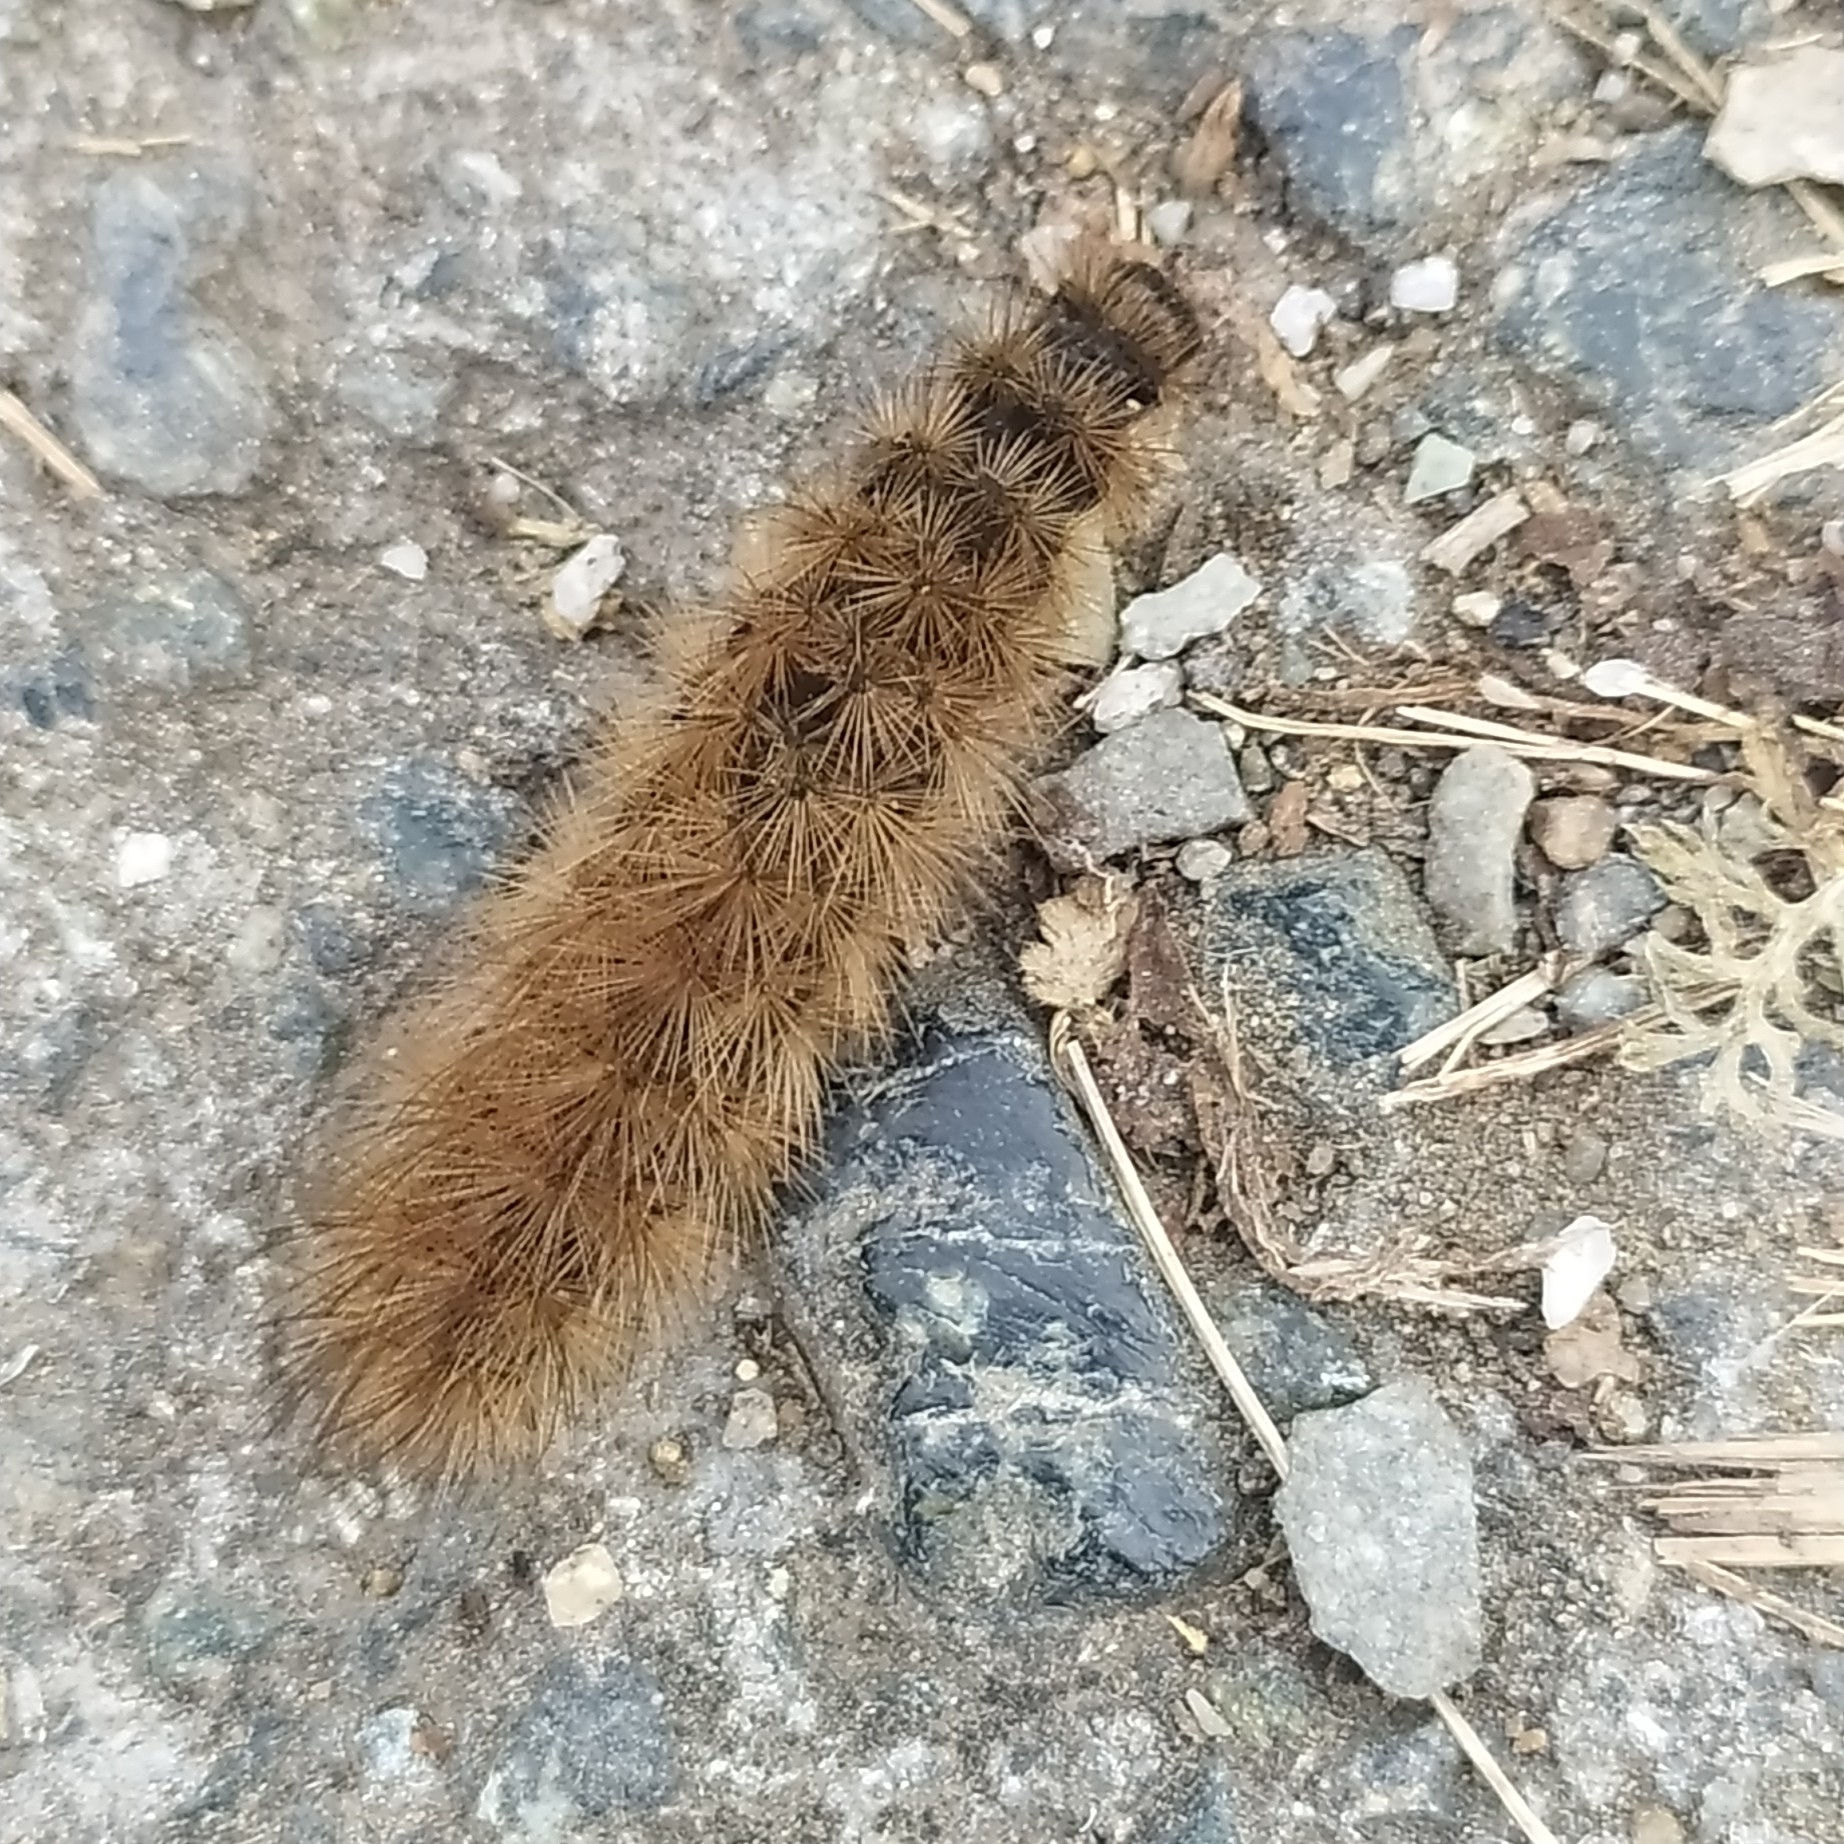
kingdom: Animalia
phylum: Arthropoda
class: Insecta
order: Lepidoptera
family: Erebidae
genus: Phragmatobia
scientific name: Phragmatobia fuliginosa
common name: Ruby tiger
